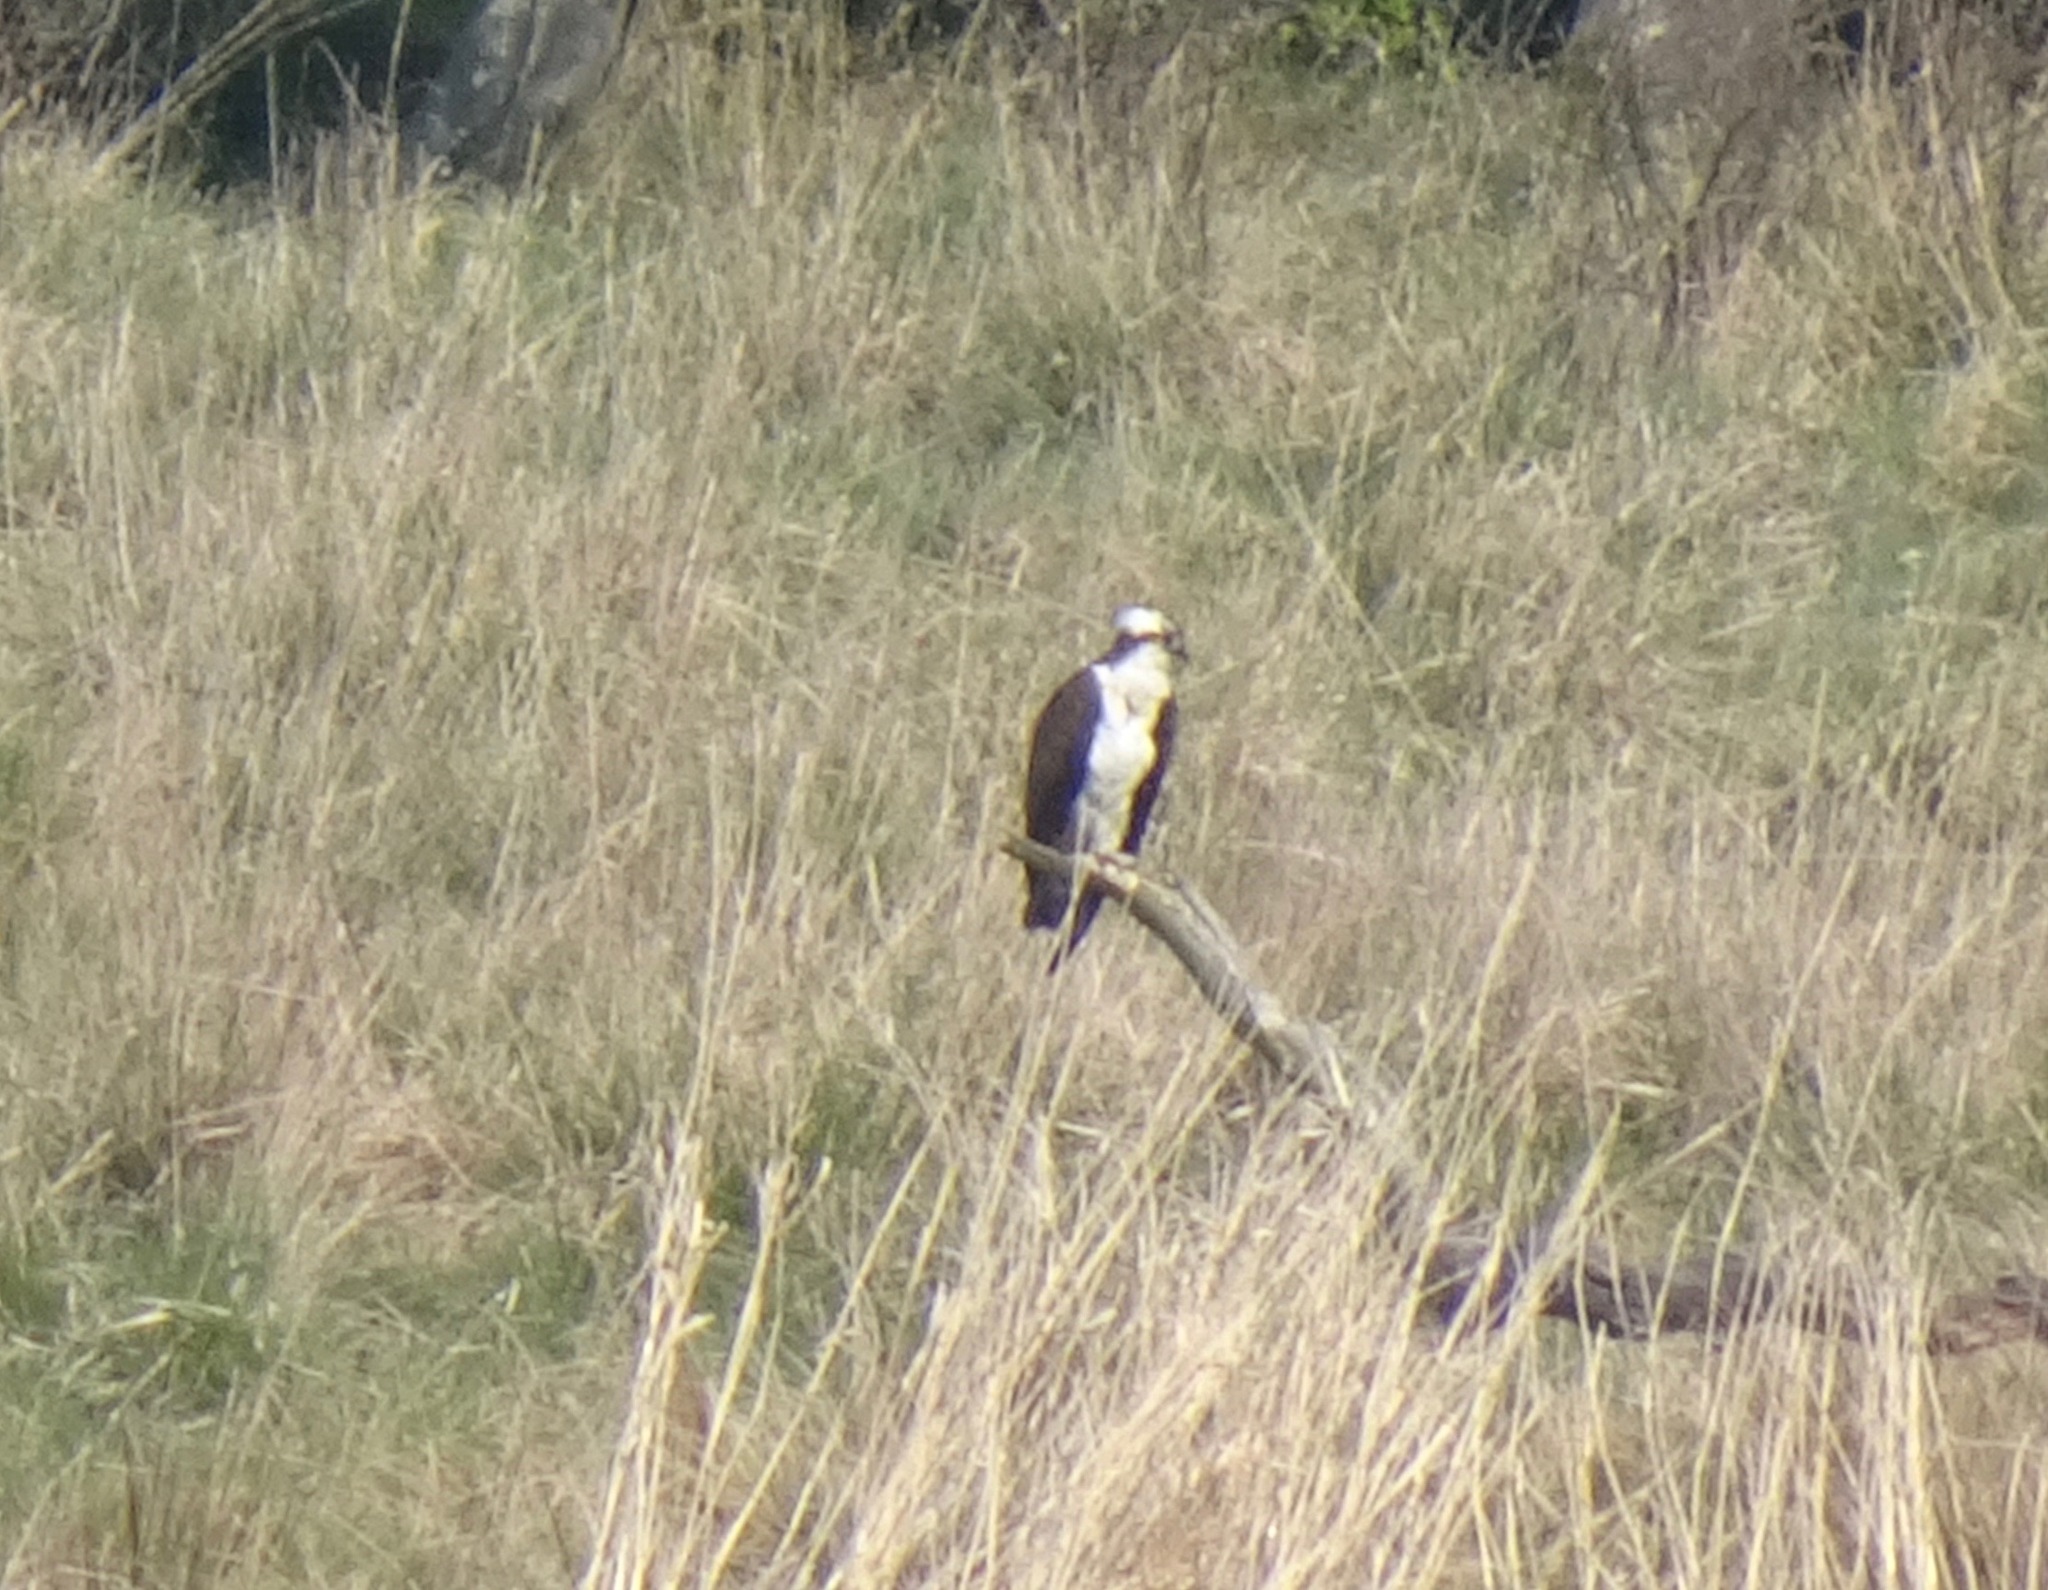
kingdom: Animalia
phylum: Chordata
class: Aves
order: Accipitriformes
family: Pandionidae
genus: Pandion
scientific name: Pandion haliaetus
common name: Osprey
